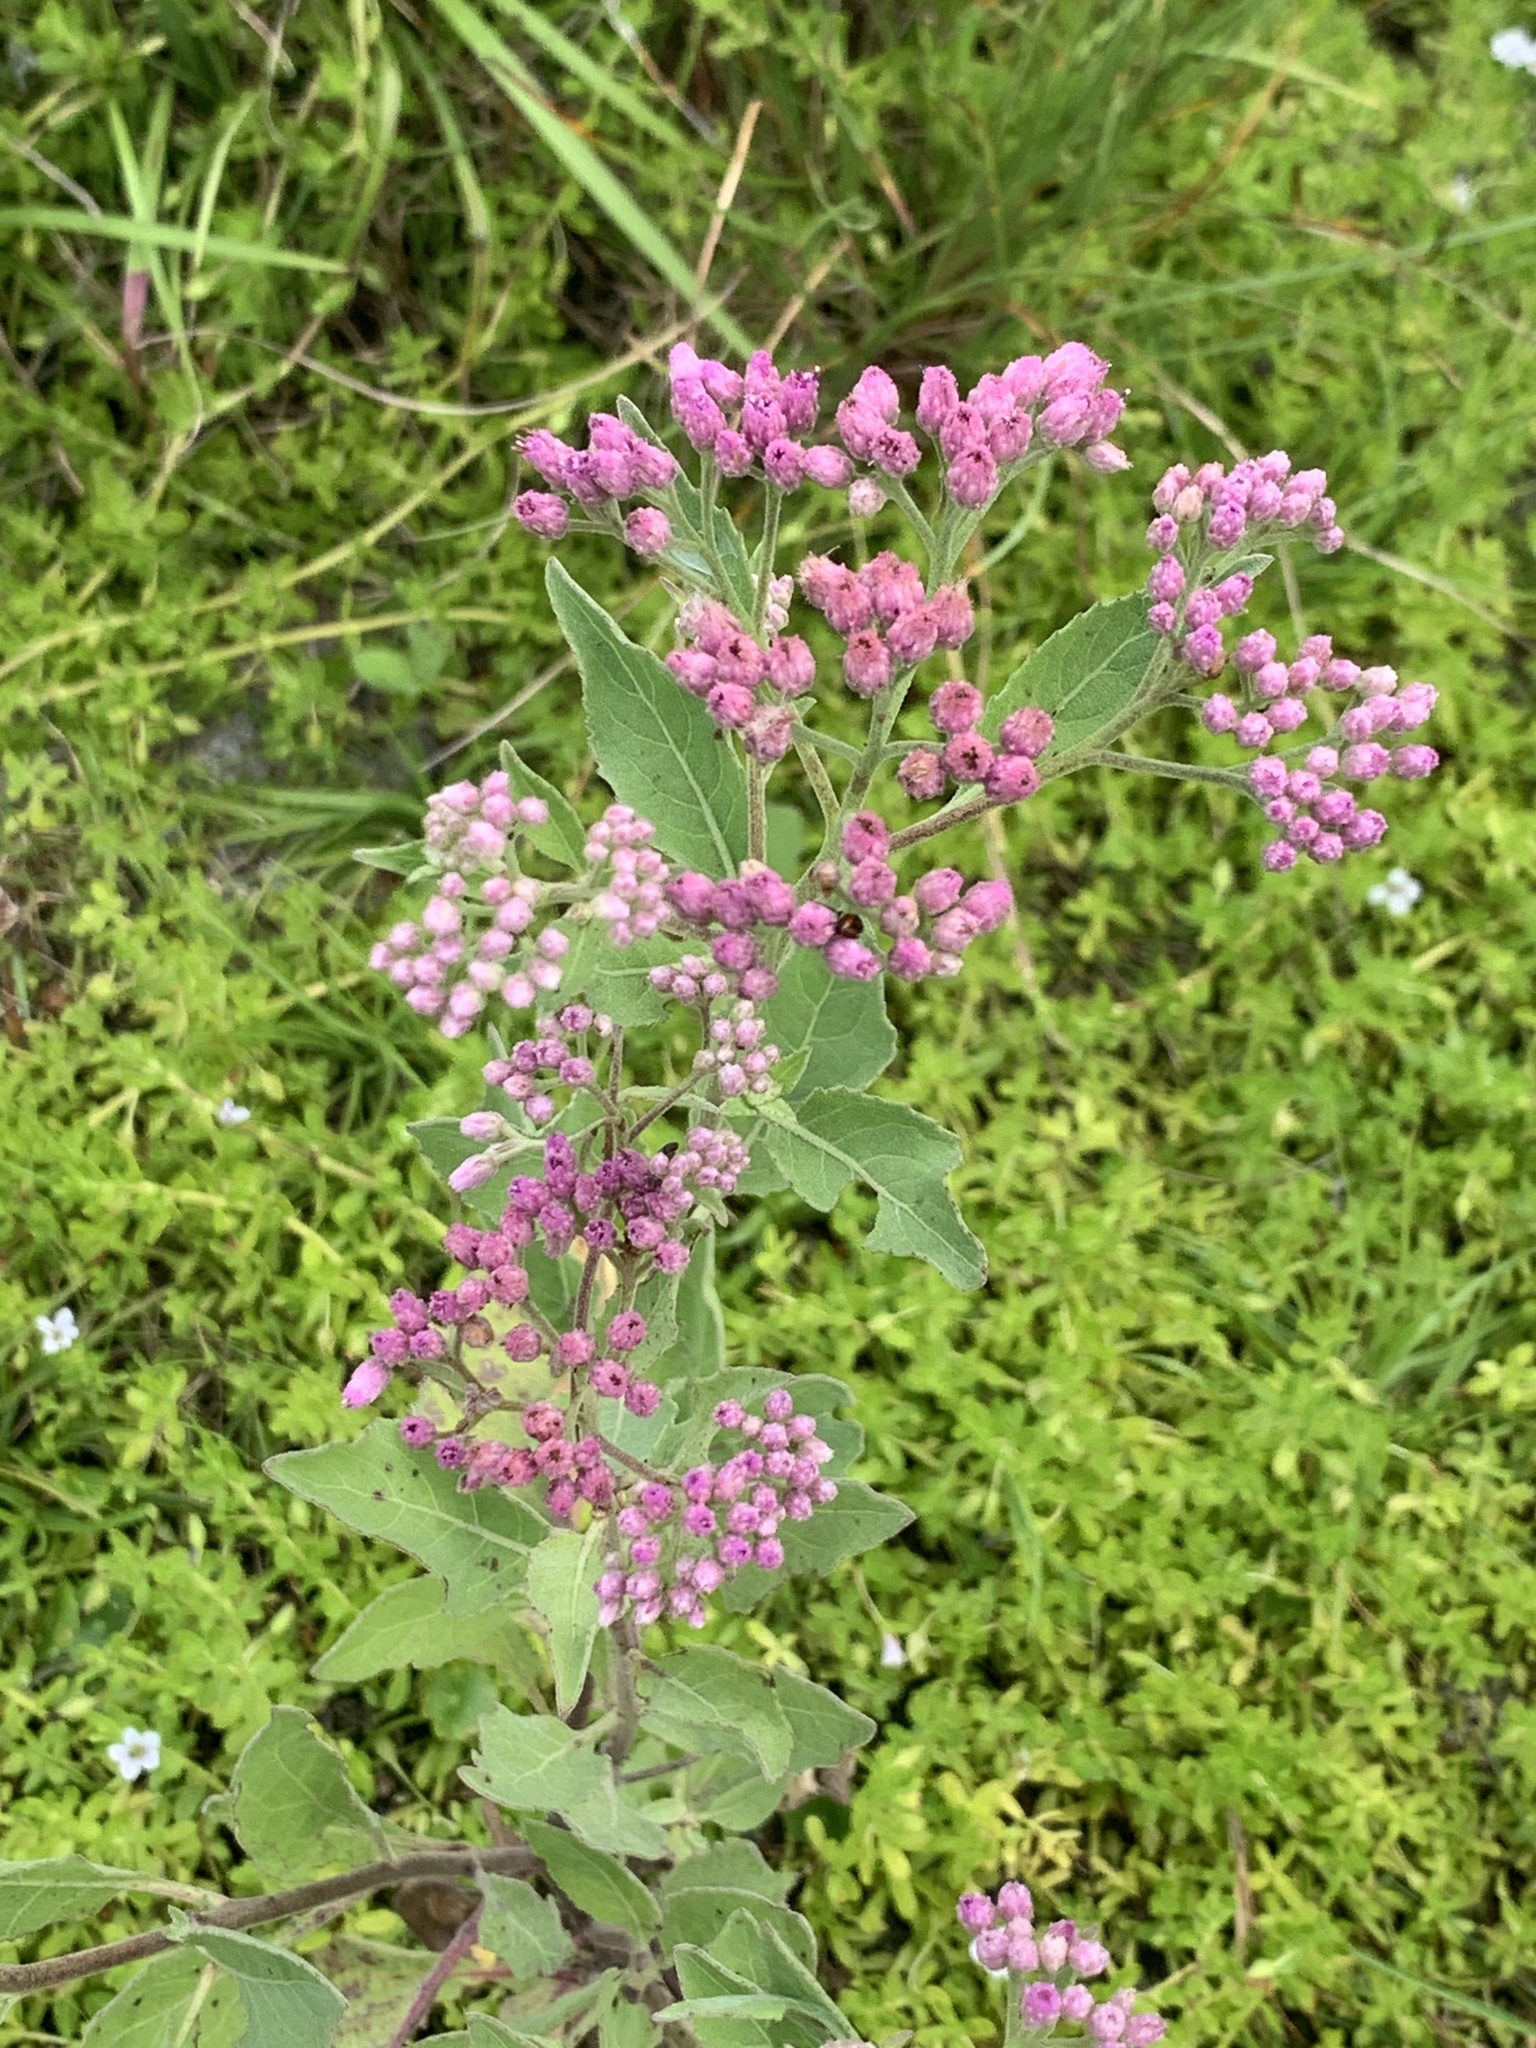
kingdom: Plantae
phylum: Tracheophyta
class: Magnoliopsida
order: Asterales
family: Asteraceae
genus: Pluchea
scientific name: Pluchea odorata
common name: Saltmarsh fleabane
